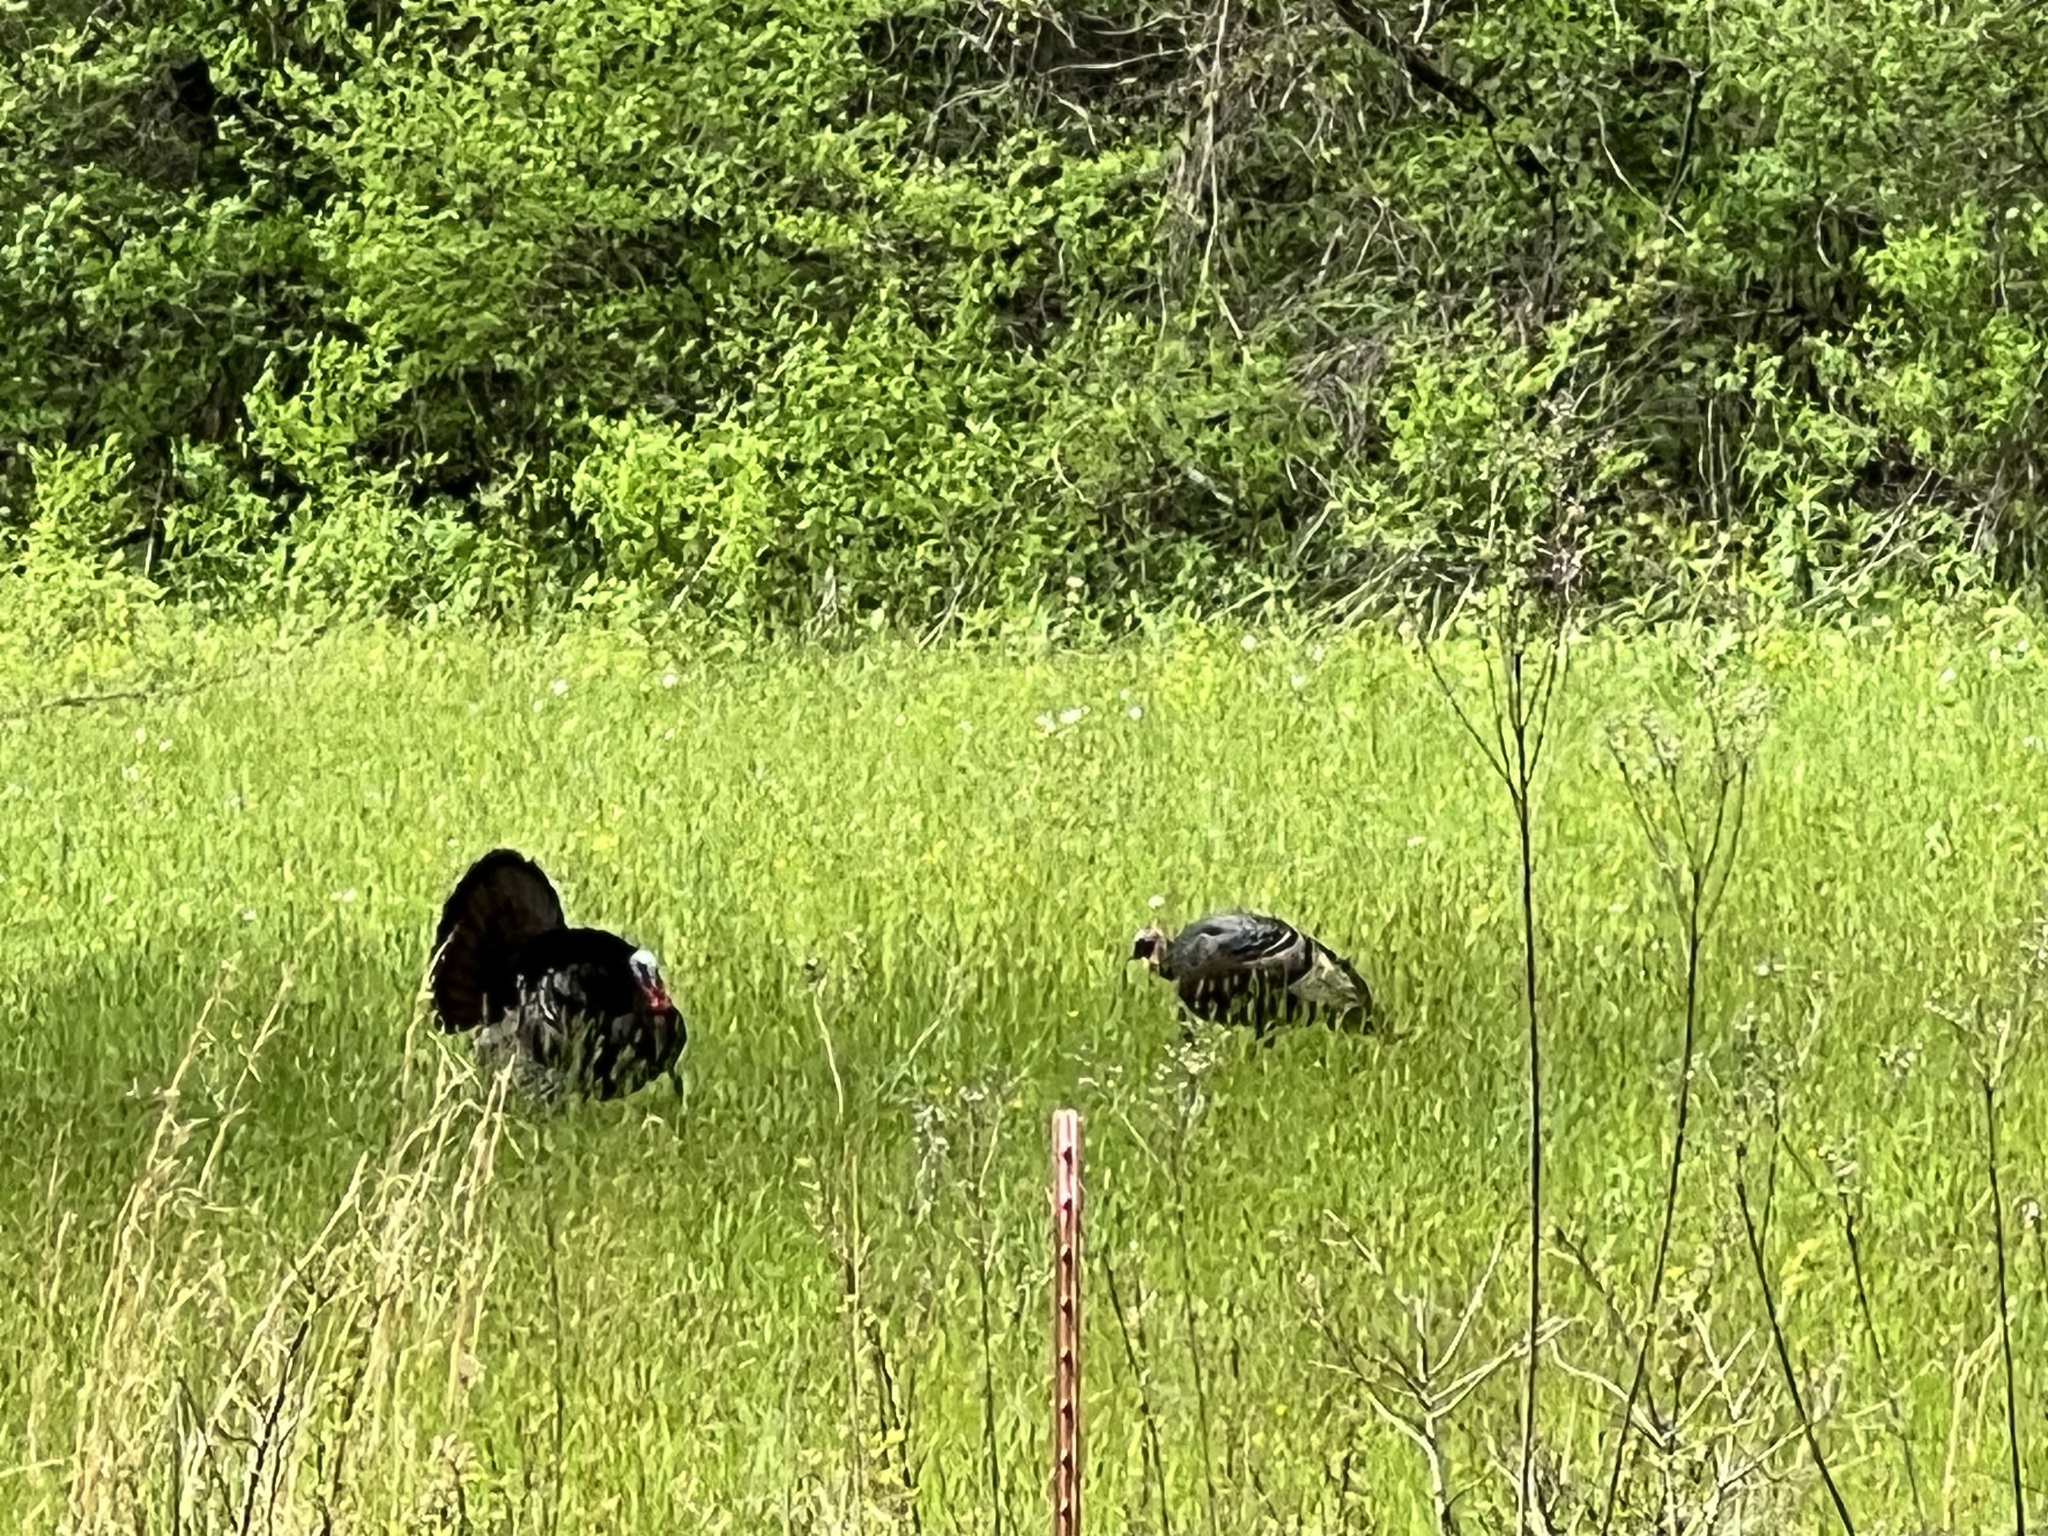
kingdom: Animalia
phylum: Chordata
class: Aves
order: Galliformes
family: Phasianidae
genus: Meleagris
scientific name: Meleagris gallopavo
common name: Wild turkey
